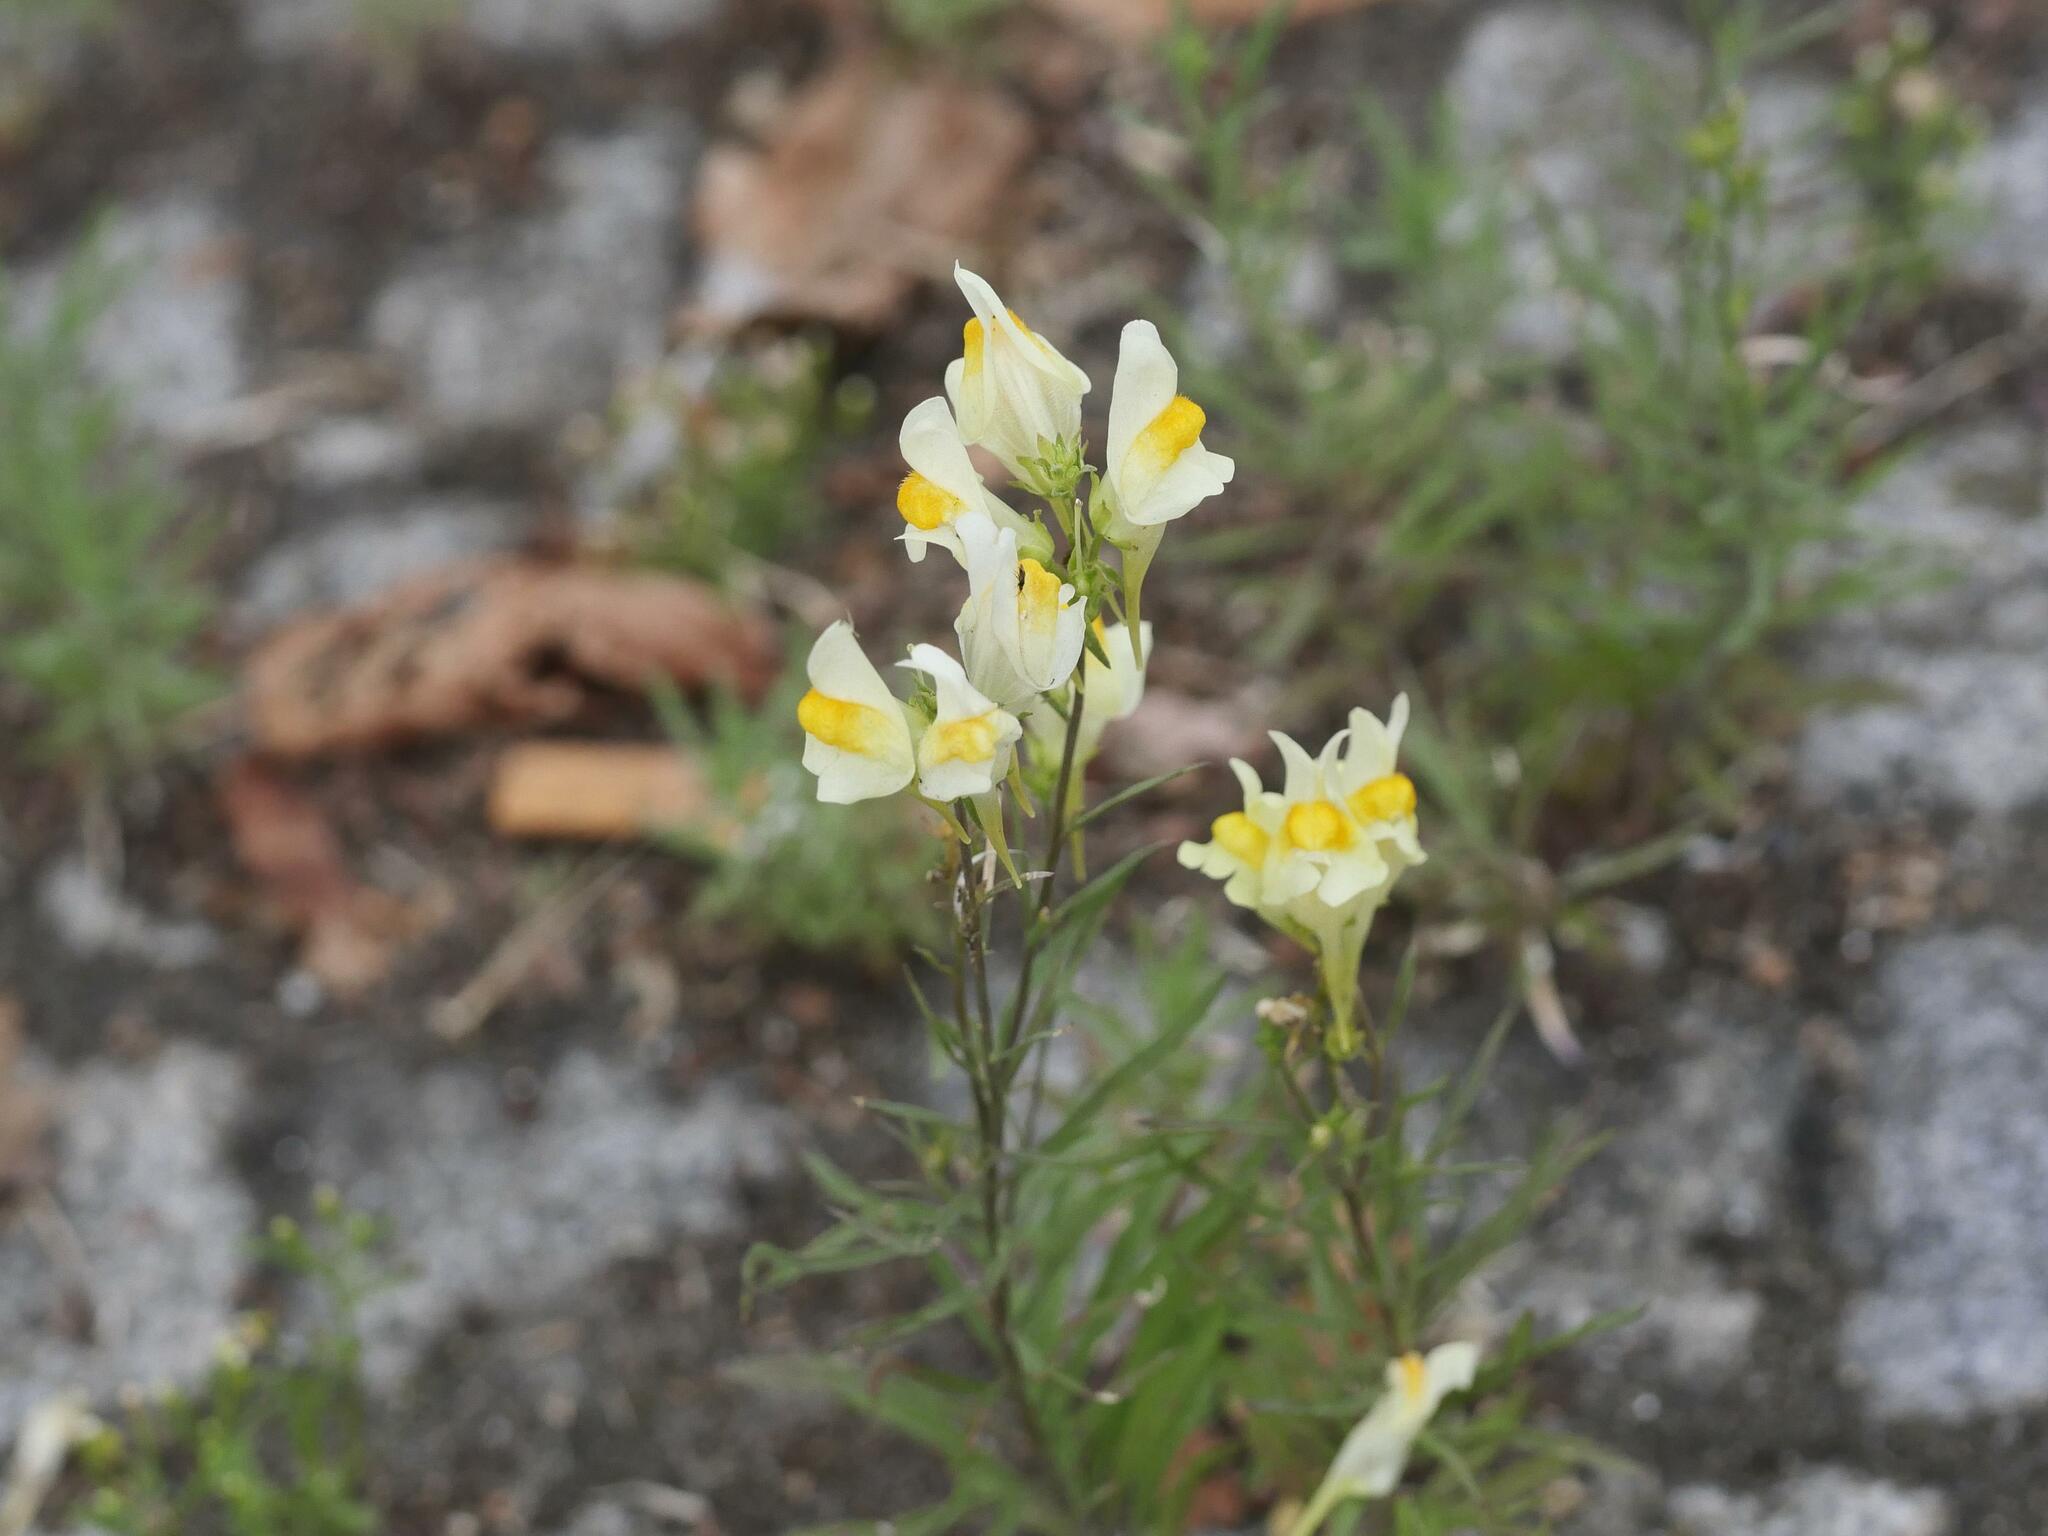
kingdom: Plantae
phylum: Tracheophyta
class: Magnoliopsida
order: Lamiales
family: Plantaginaceae
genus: Linaria
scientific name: Linaria vulgaris
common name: Butter and eggs
